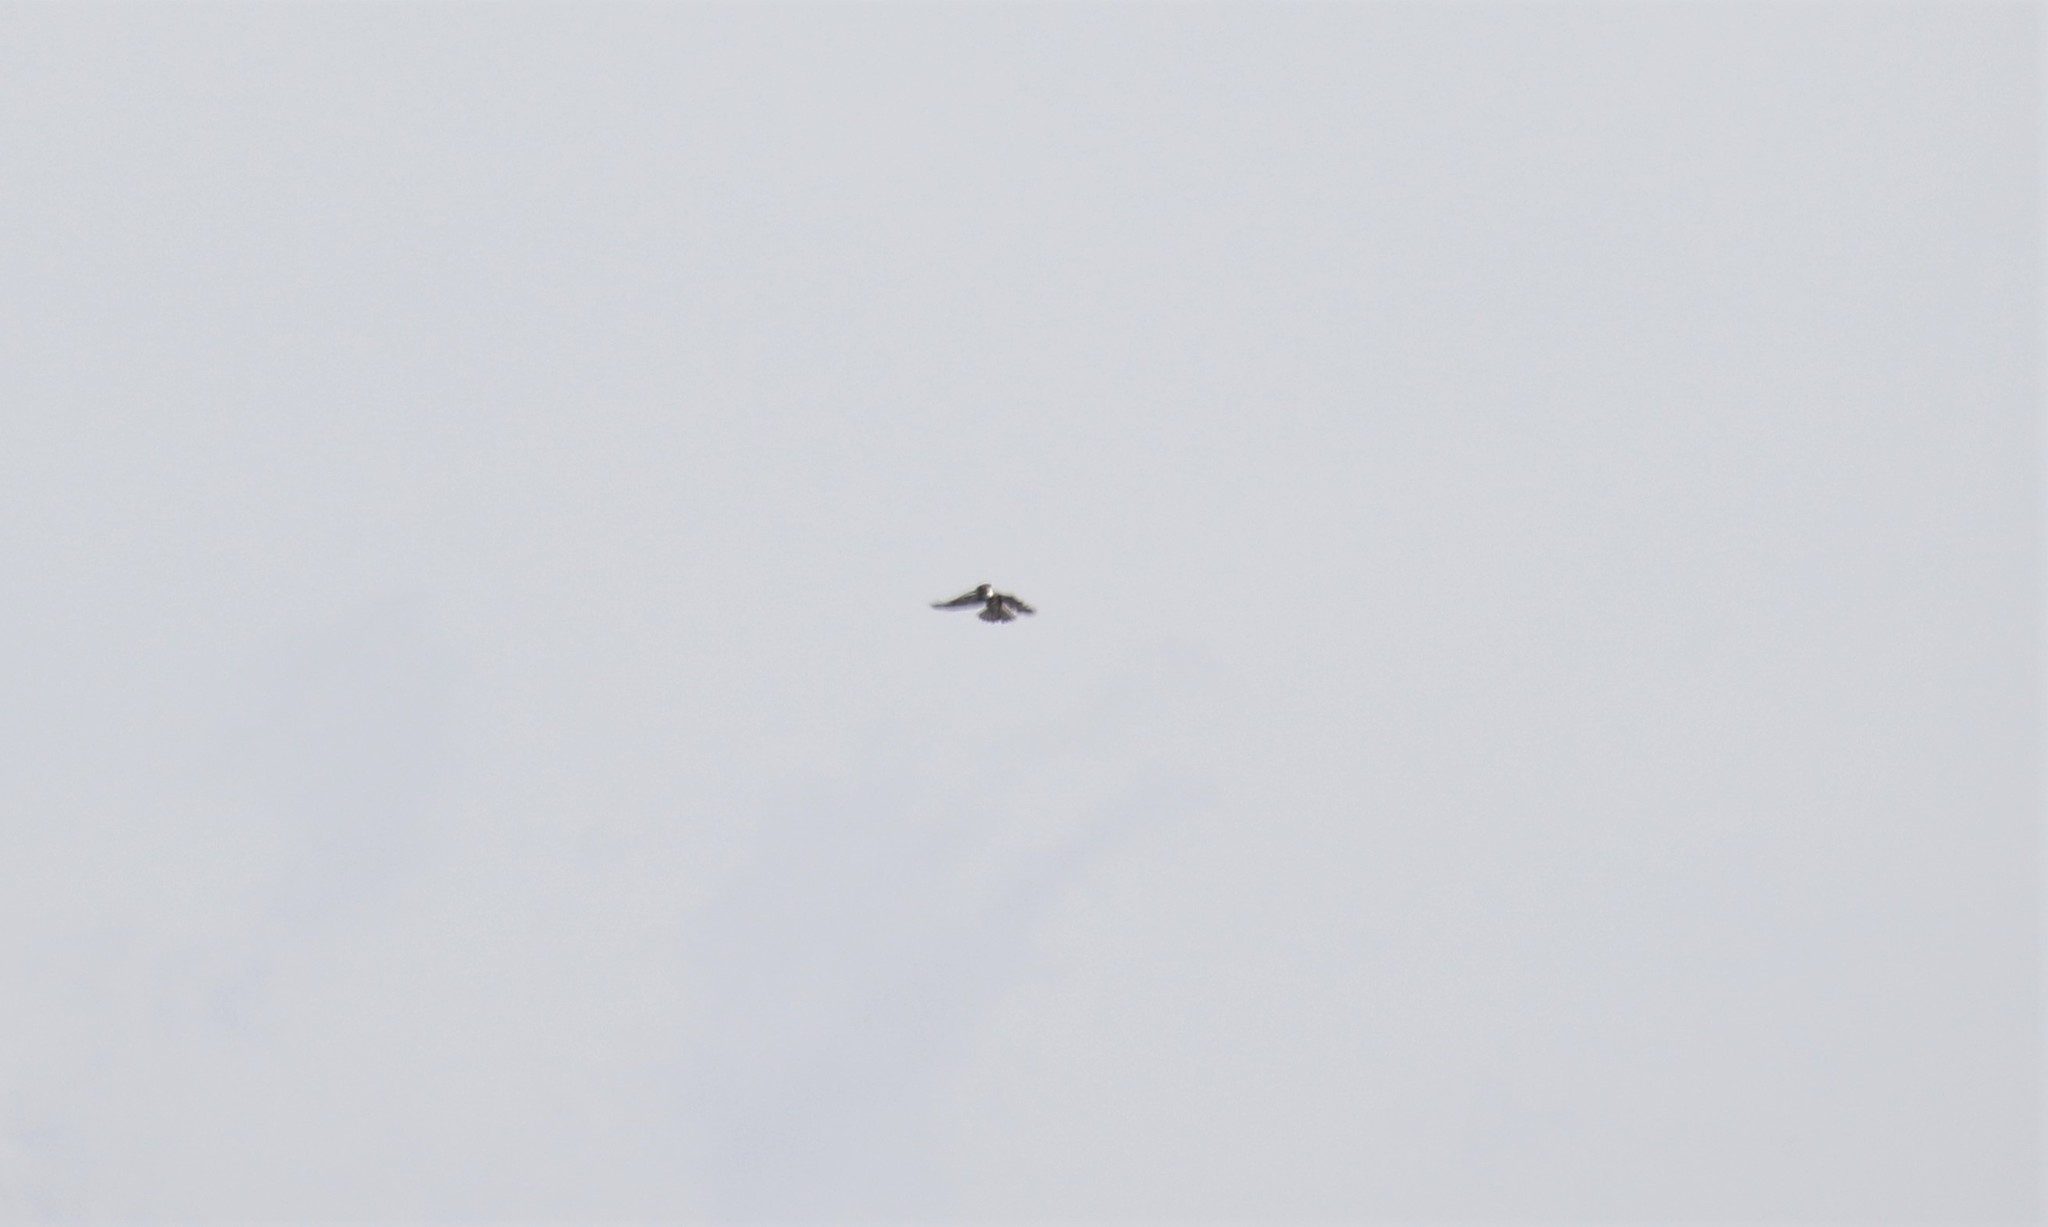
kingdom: Animalia
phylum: Chordata
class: Aves
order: Coraciiformes
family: Alcedinidae
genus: Megaceryle
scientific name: Megaceryle alcyon
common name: Belted kingfisher
